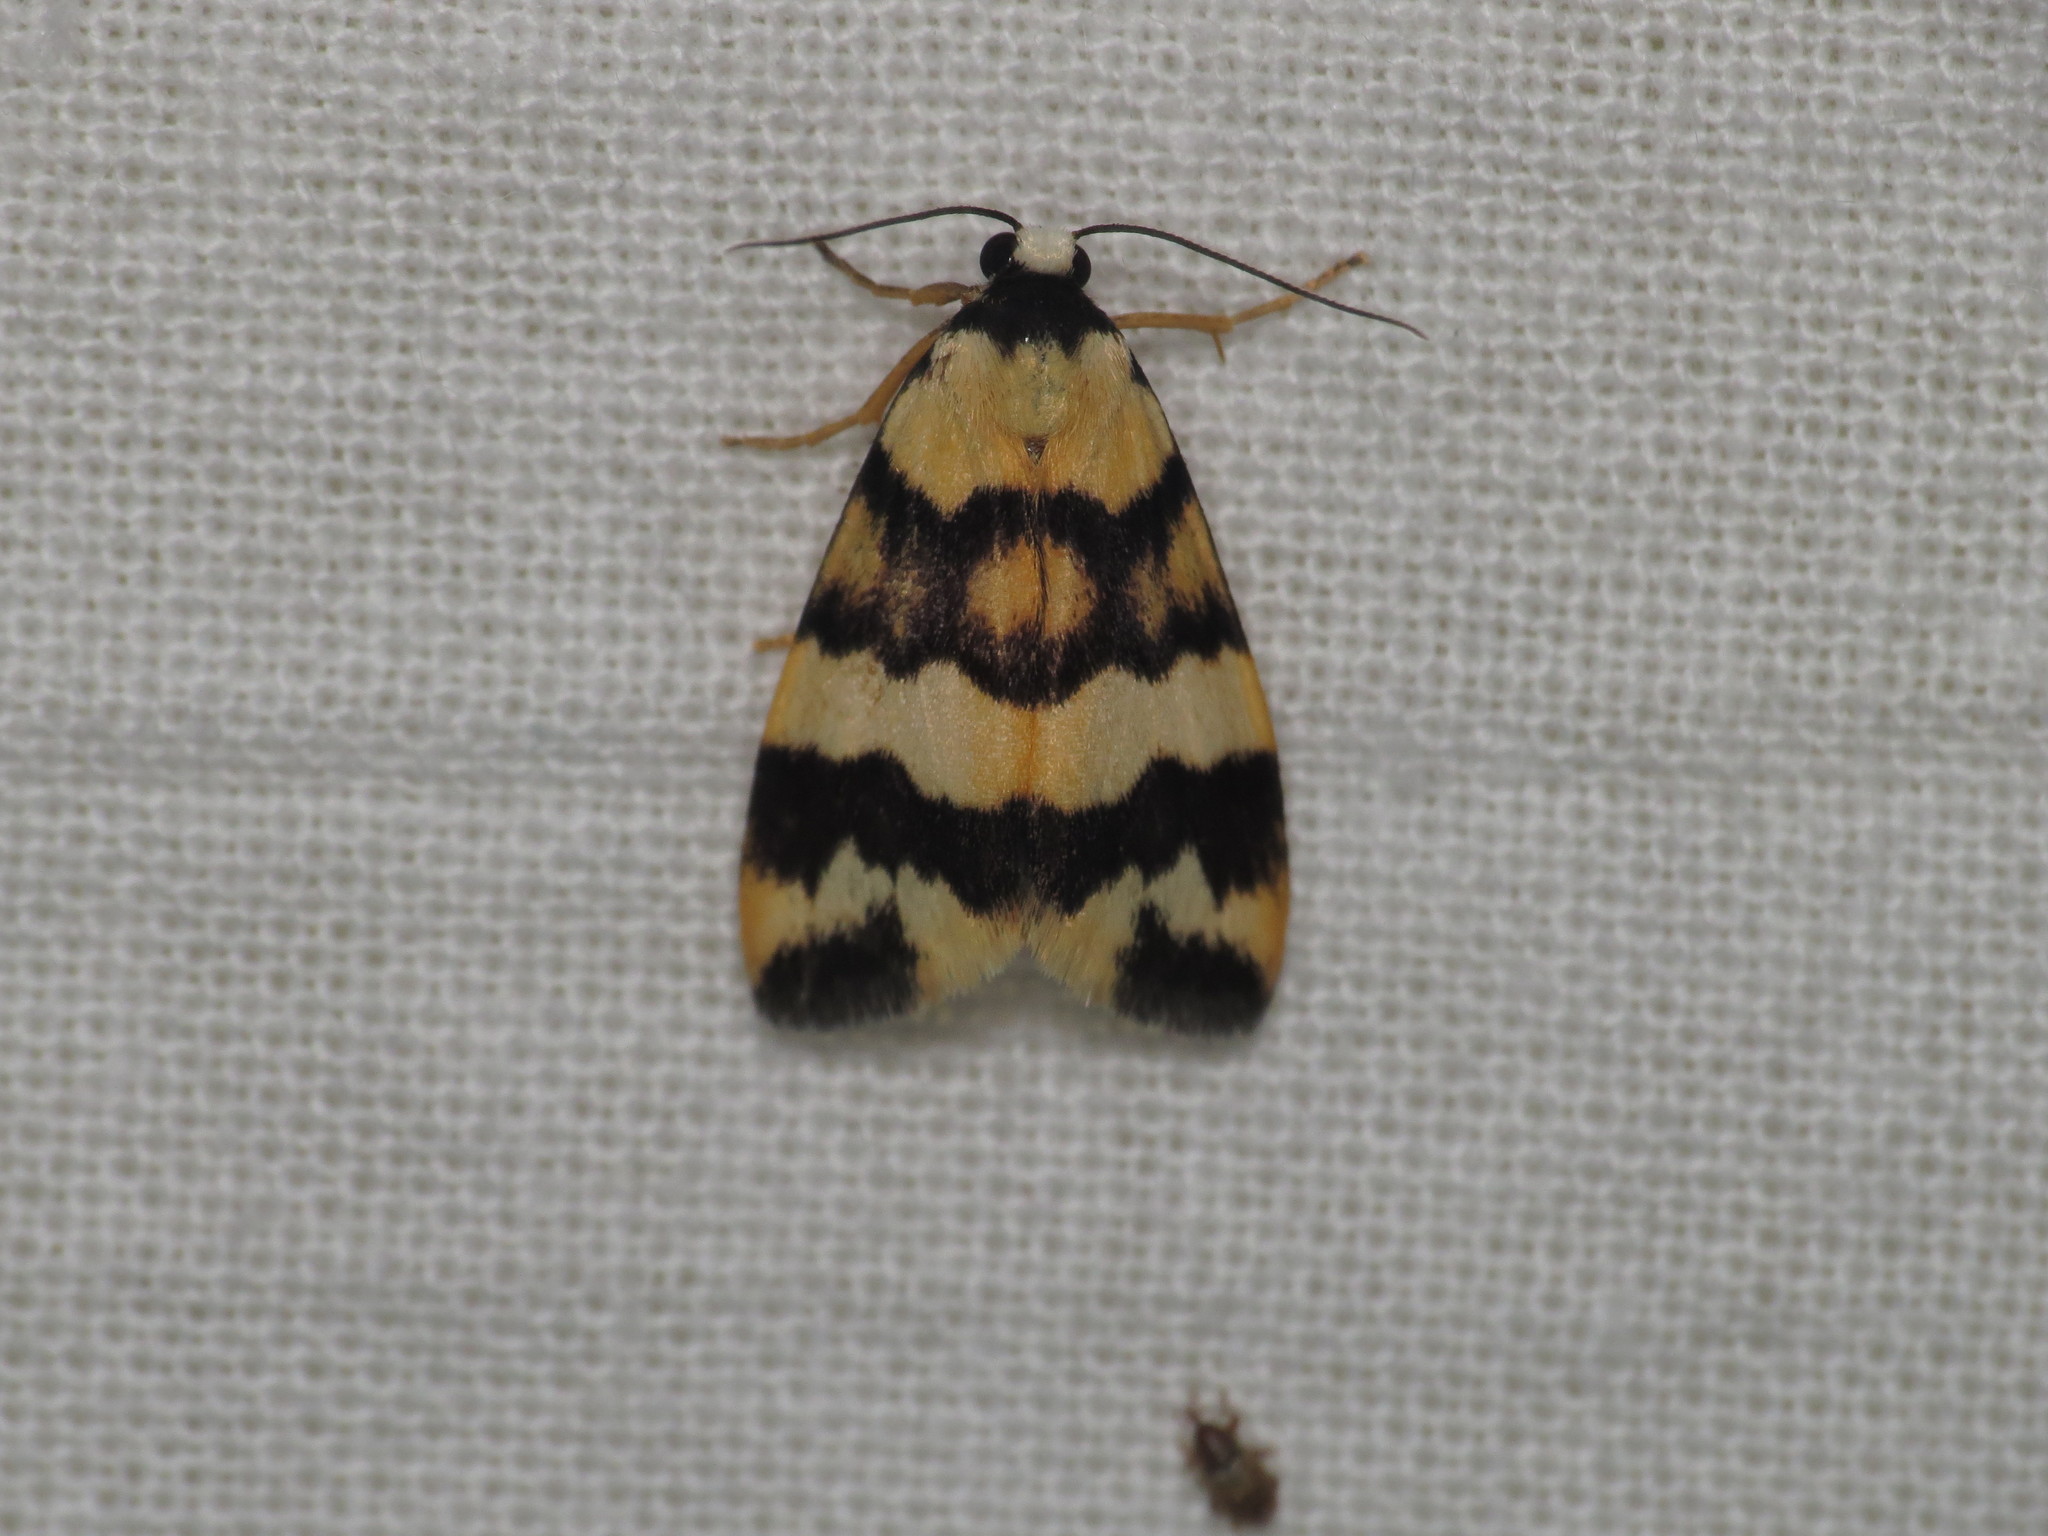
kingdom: Animalia
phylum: Arthropoda
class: Insecta
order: Lepidoptera
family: Erebidae
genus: Termessa
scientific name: Termessa zonophanes
